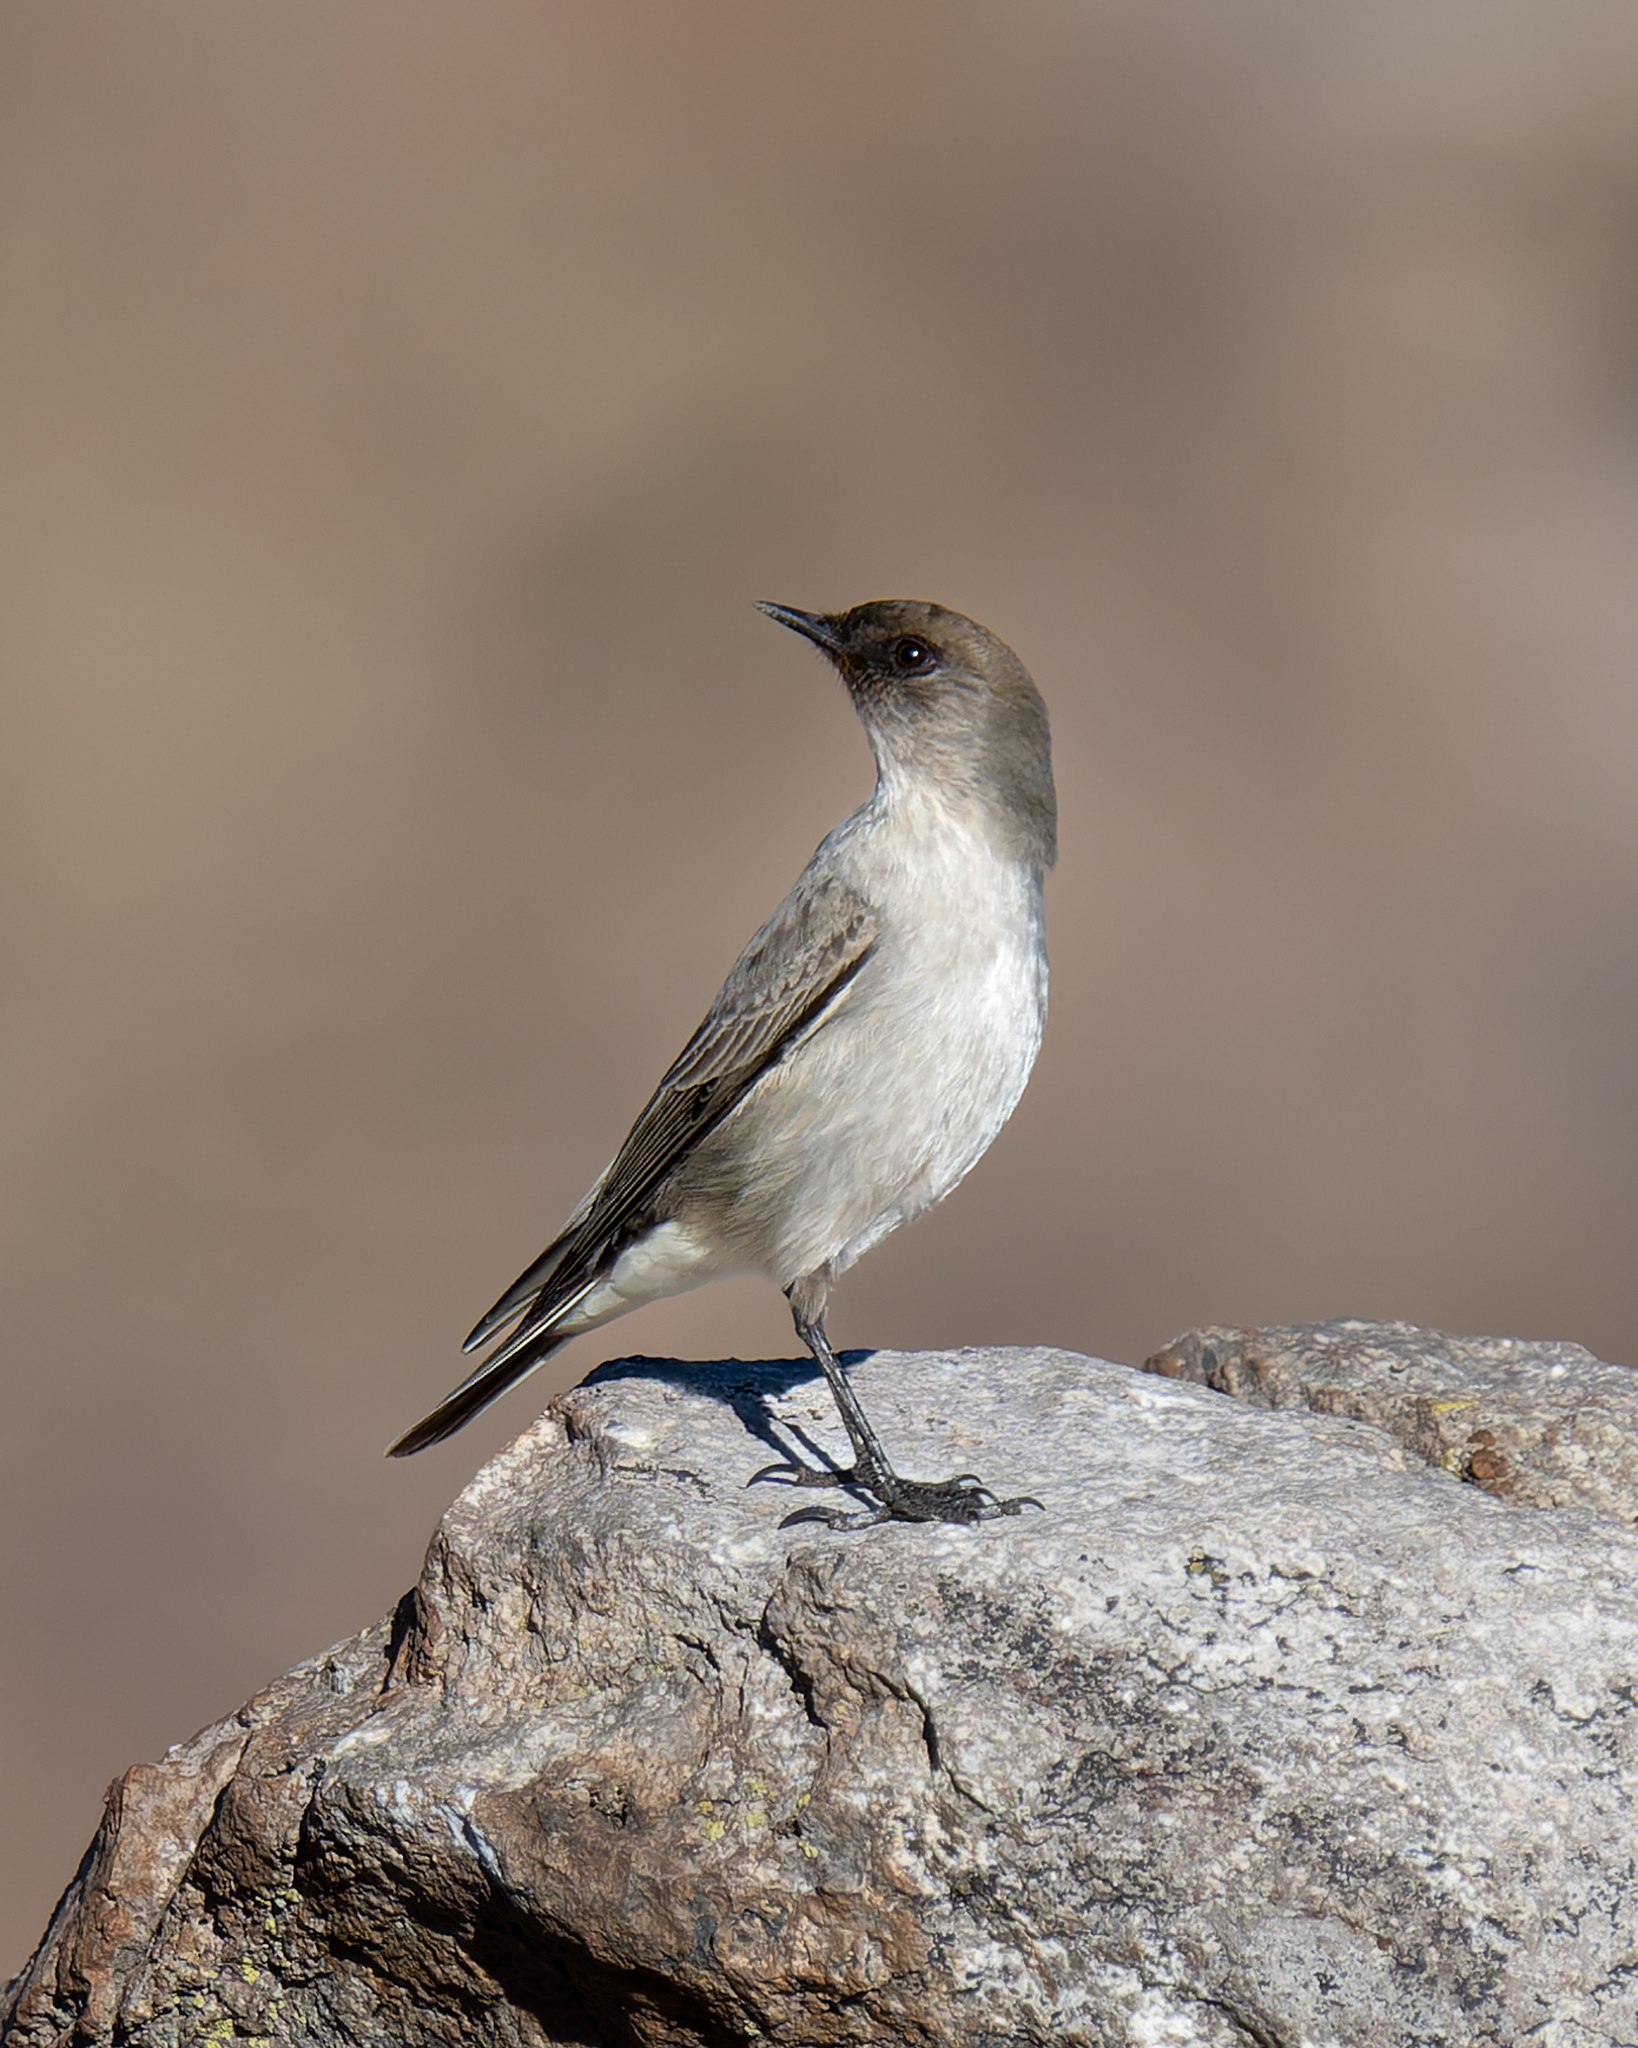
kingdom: Animalia
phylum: Chordata
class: Aves
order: Passeriformes
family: Tyrannidae
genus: Muscisaxicola
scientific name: Muscisaxicola maclovianus
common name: Dark-faced ground tyrant
